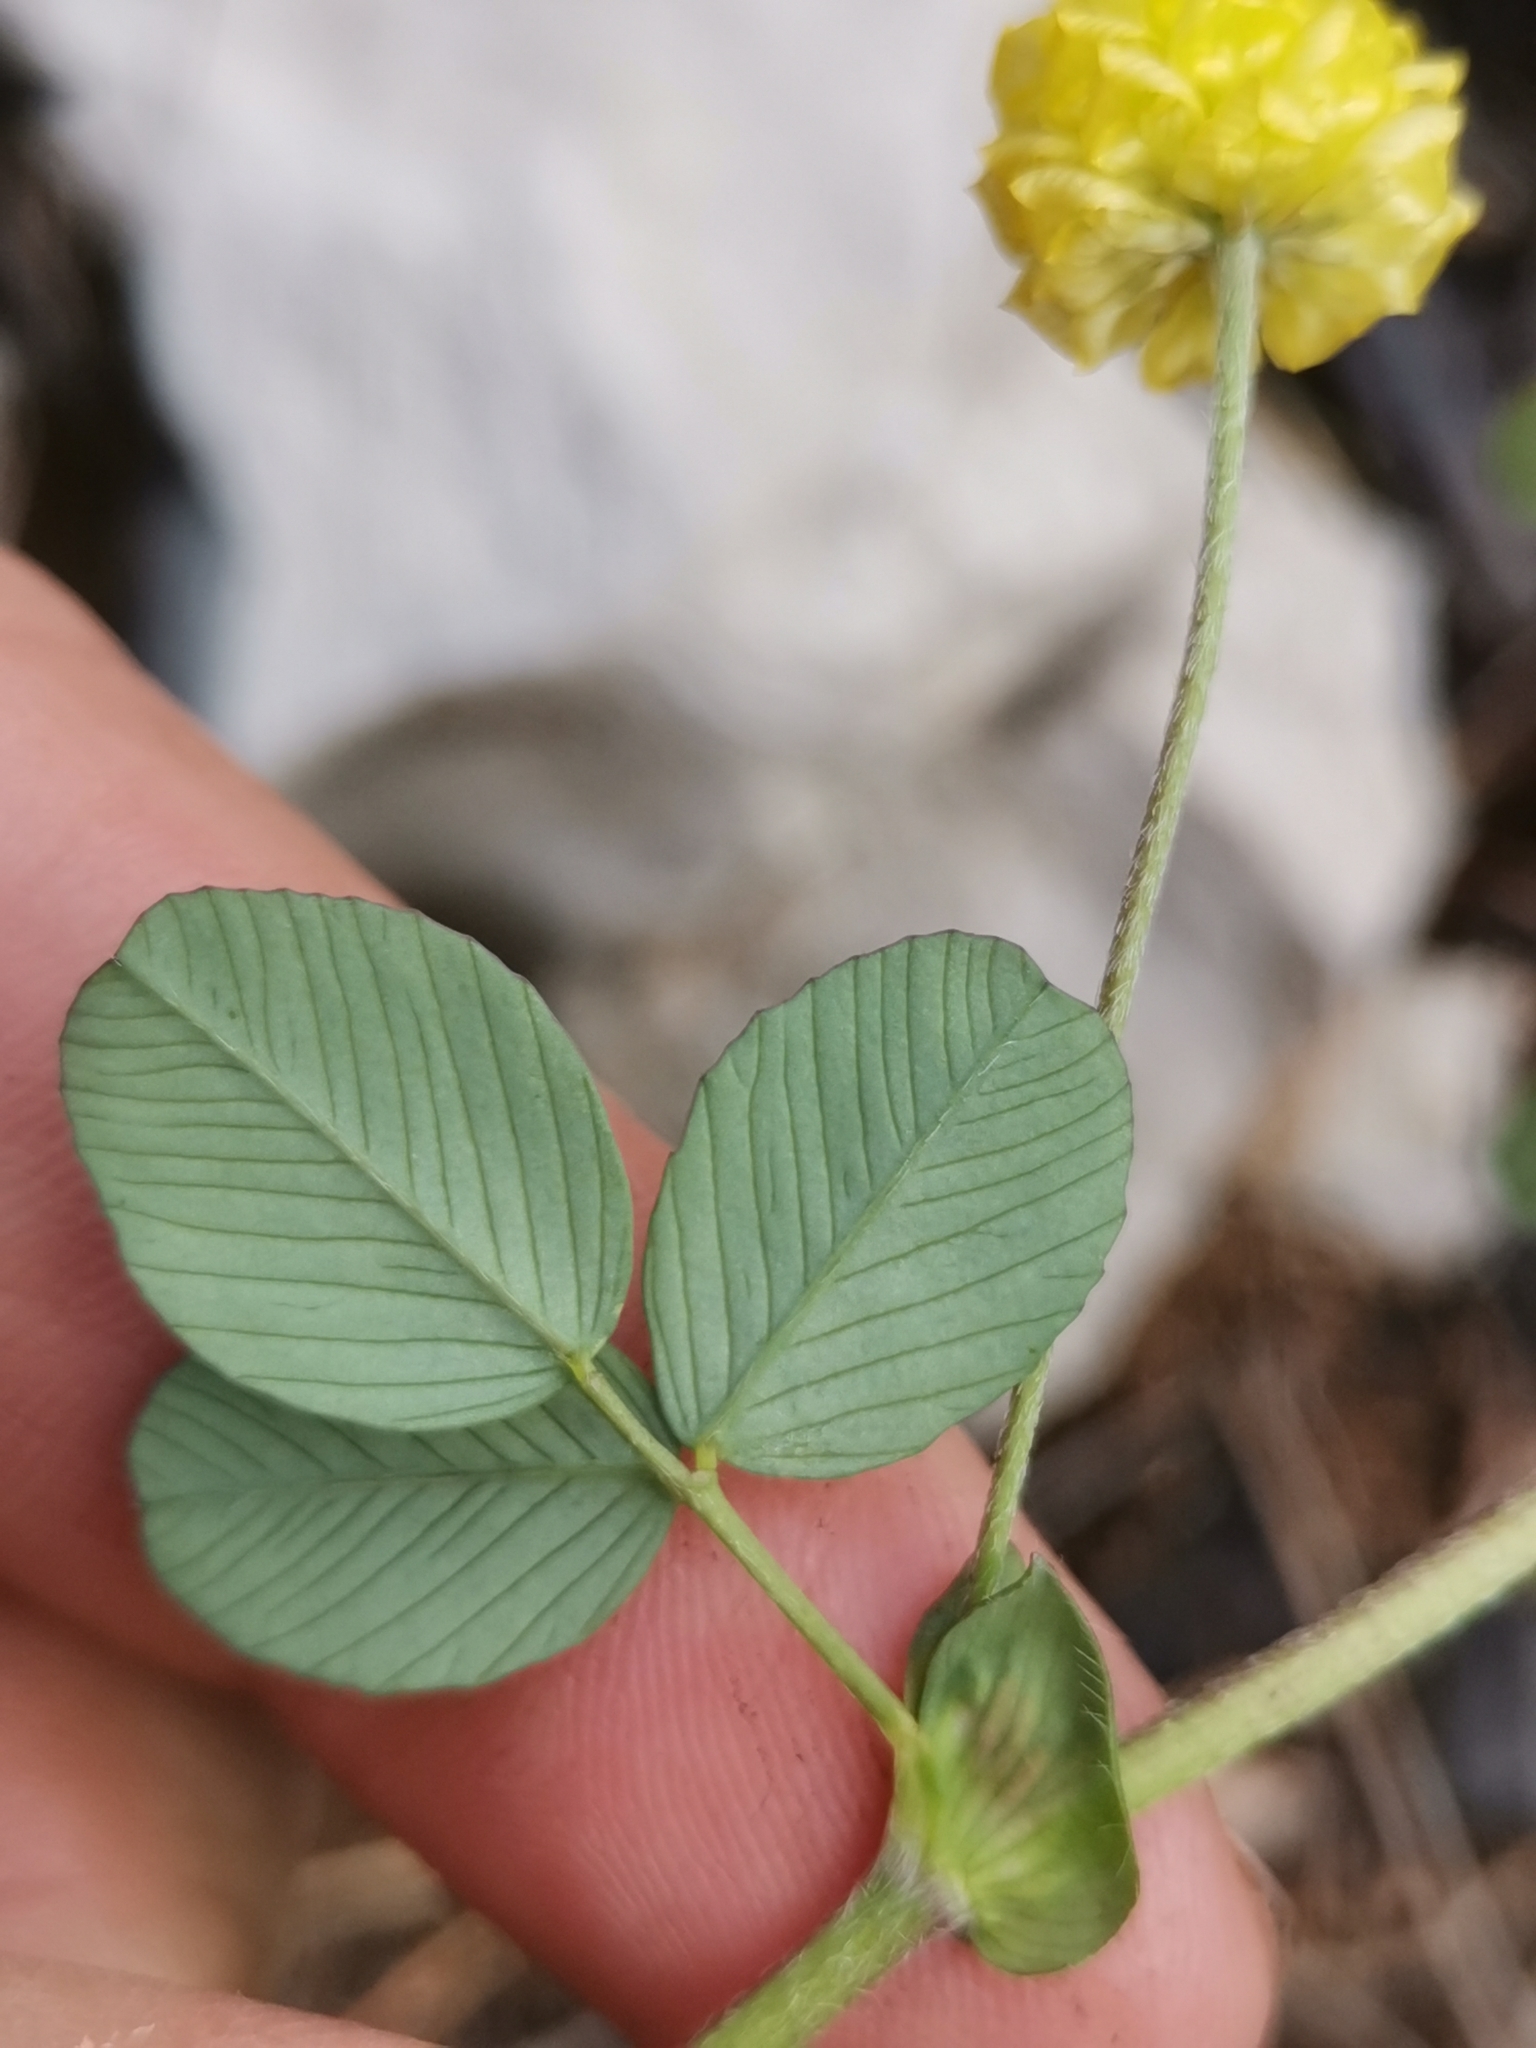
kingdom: Plantae
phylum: Tracheophyta
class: Magnoliopsida
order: Fabales
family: Fabaceae
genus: Trifolium
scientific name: Trifolium campestre
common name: Field clover
